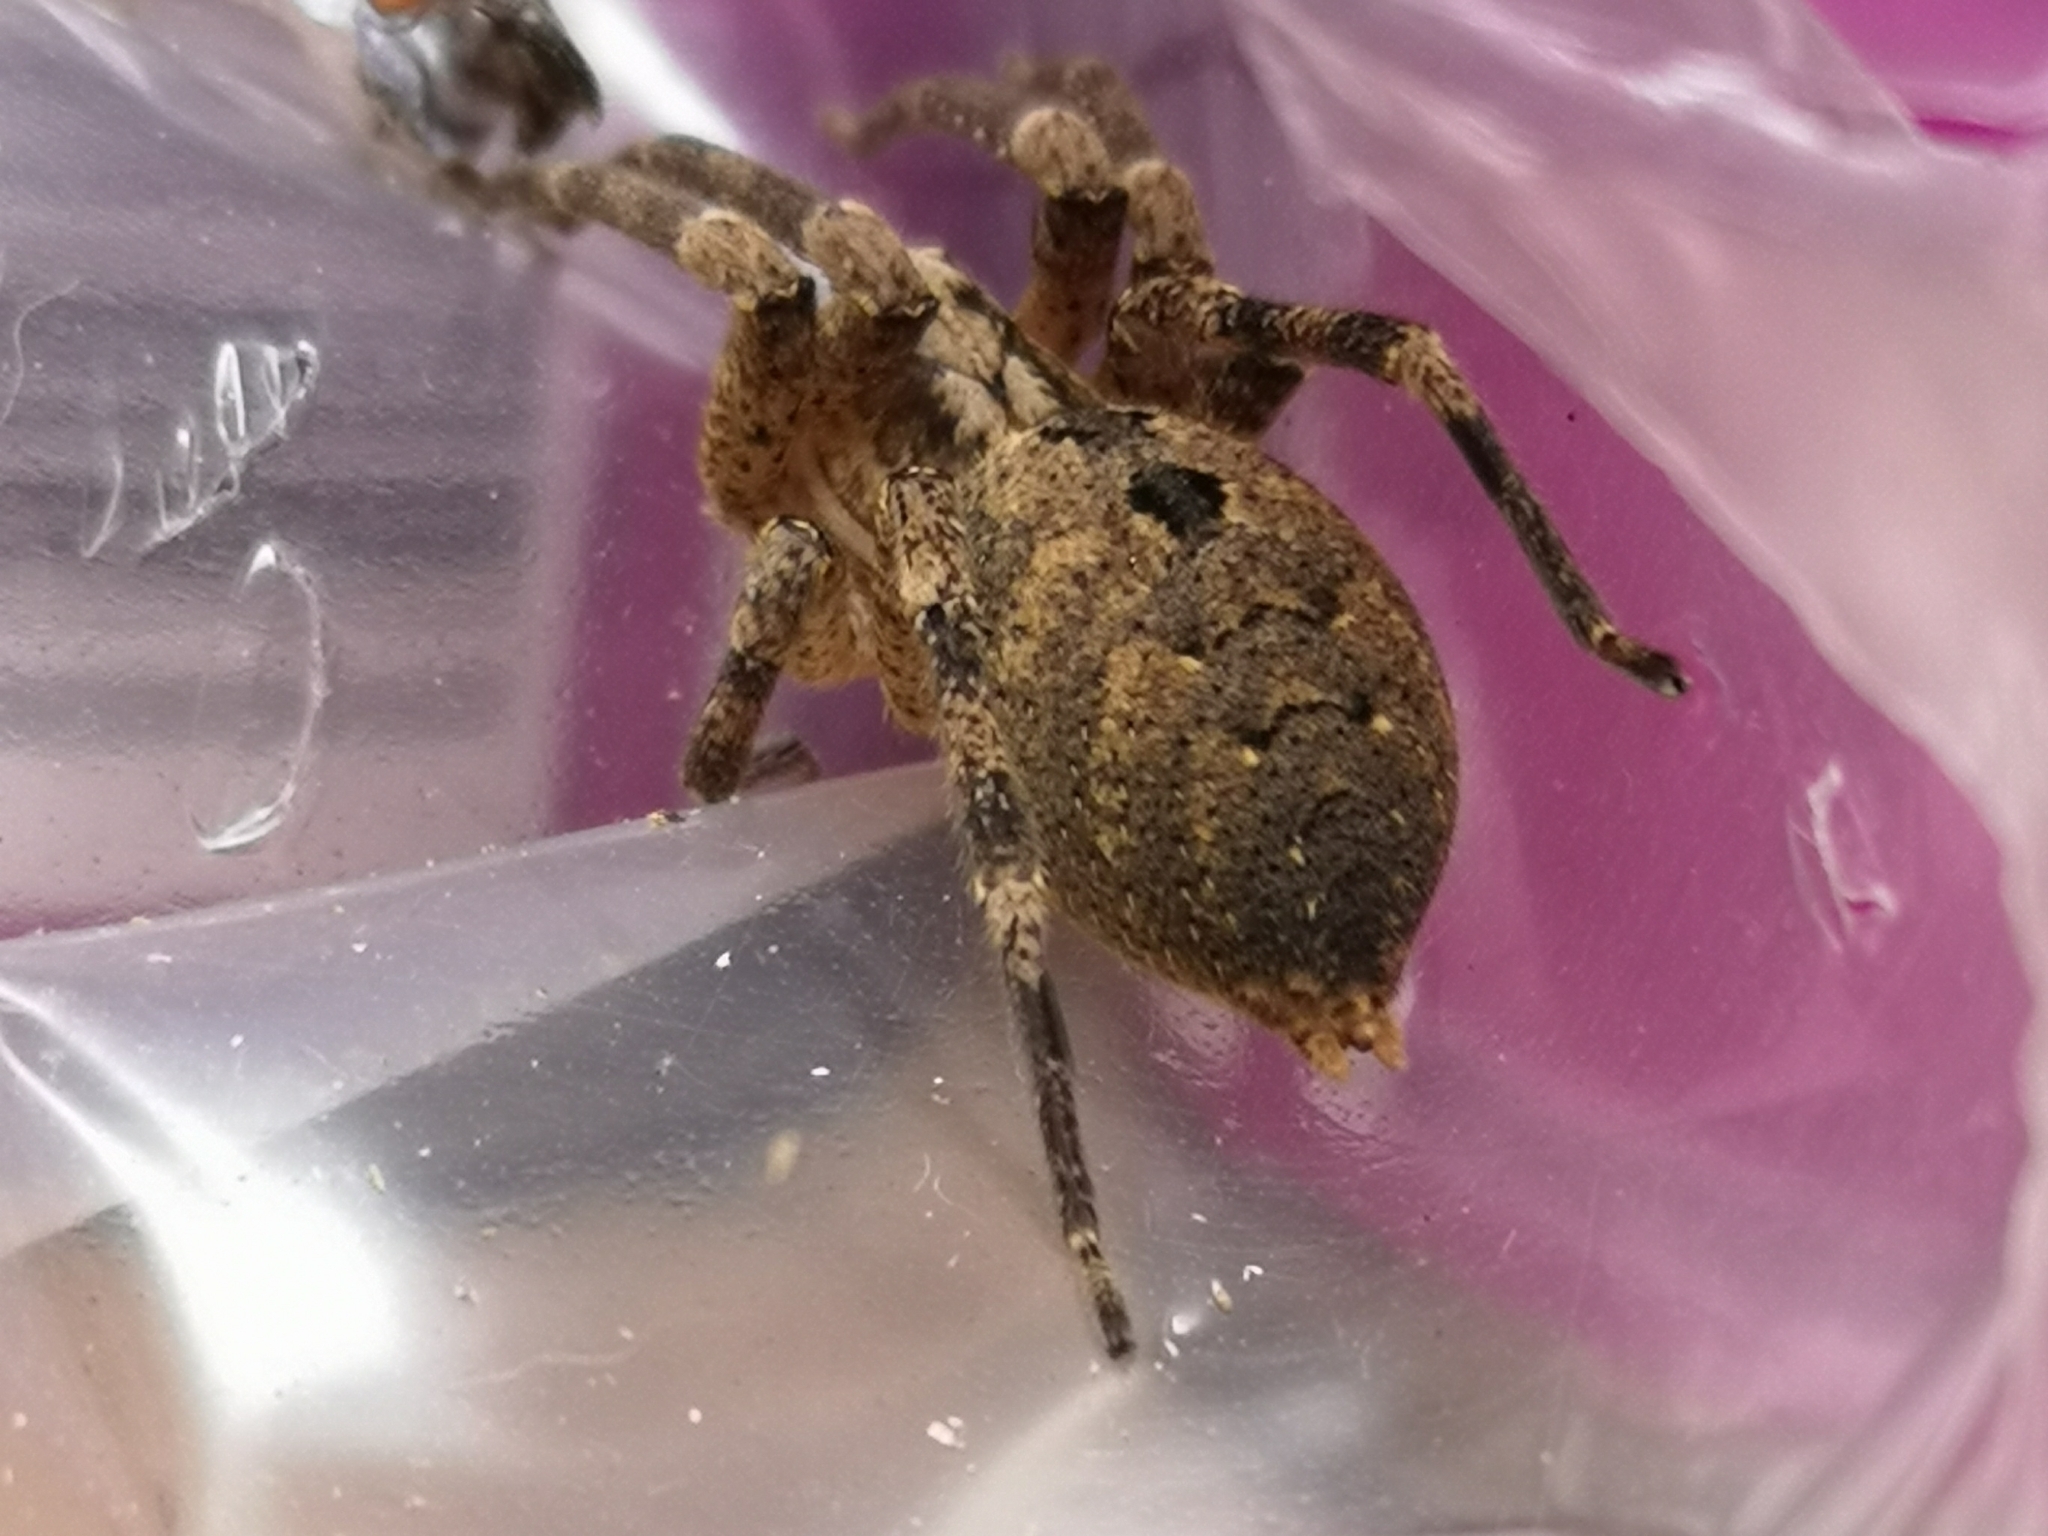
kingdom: Animalia
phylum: Arthropoda
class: Arachnida
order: Araneae
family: Zoropsidae
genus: Zoropsis
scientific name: Zoropsis spinimana
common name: Zoropsid spider
